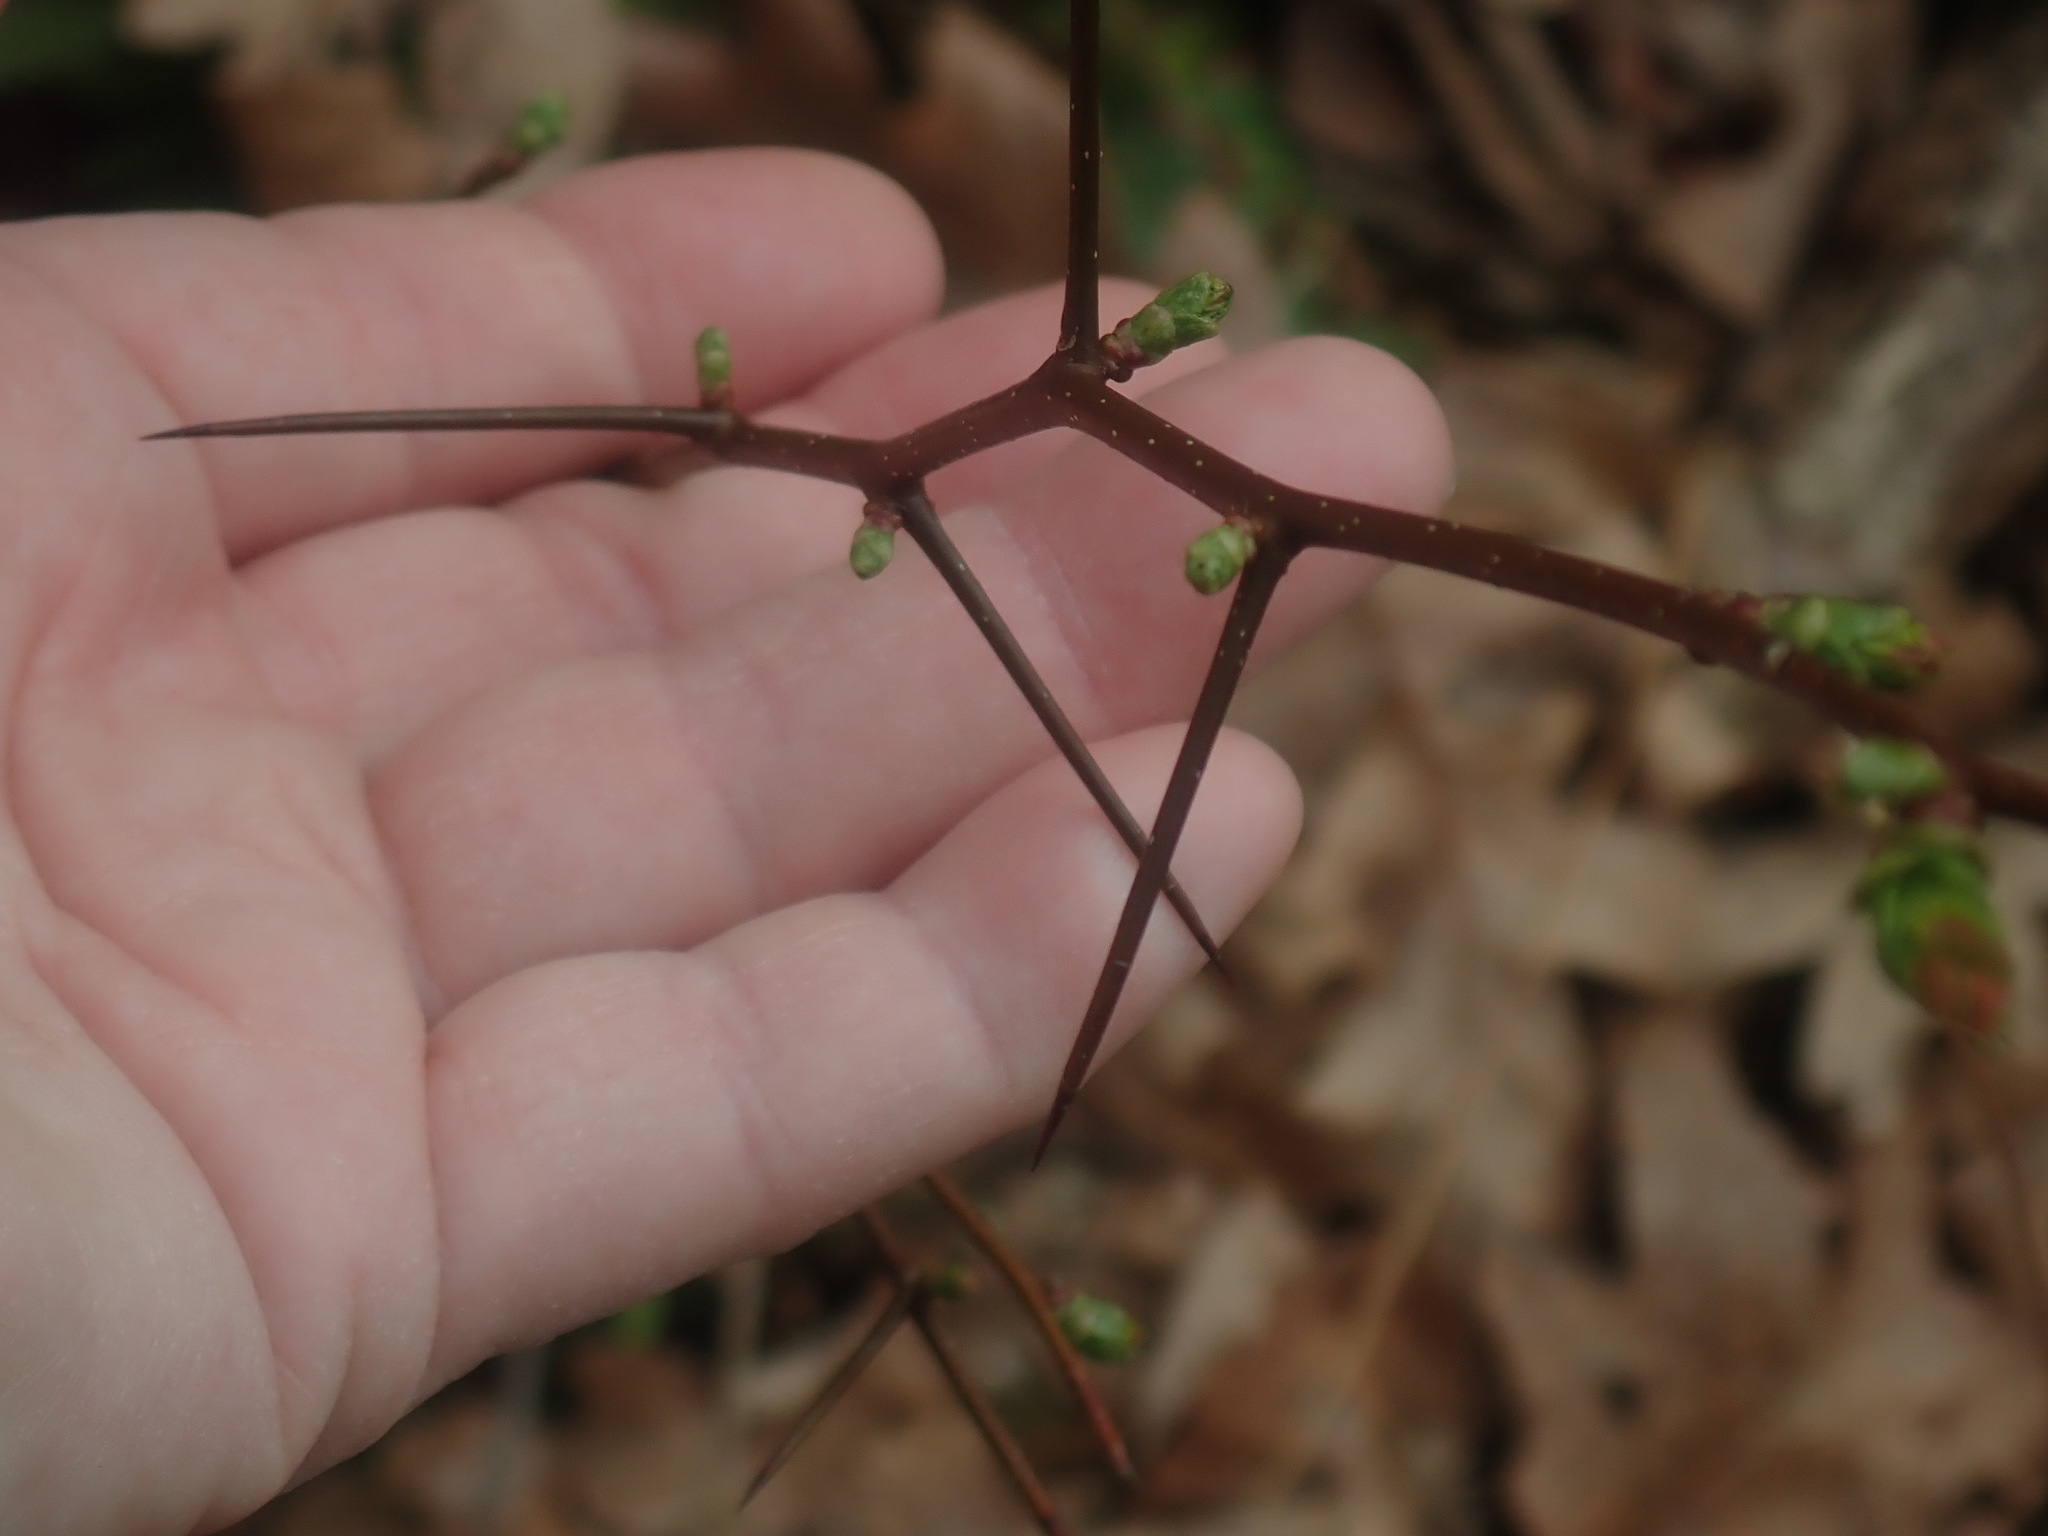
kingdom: Plantae
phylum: Tracheophyta
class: Magnoliopsida
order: Rosales
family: Rosaceae
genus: Crataegus
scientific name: Crataegus
